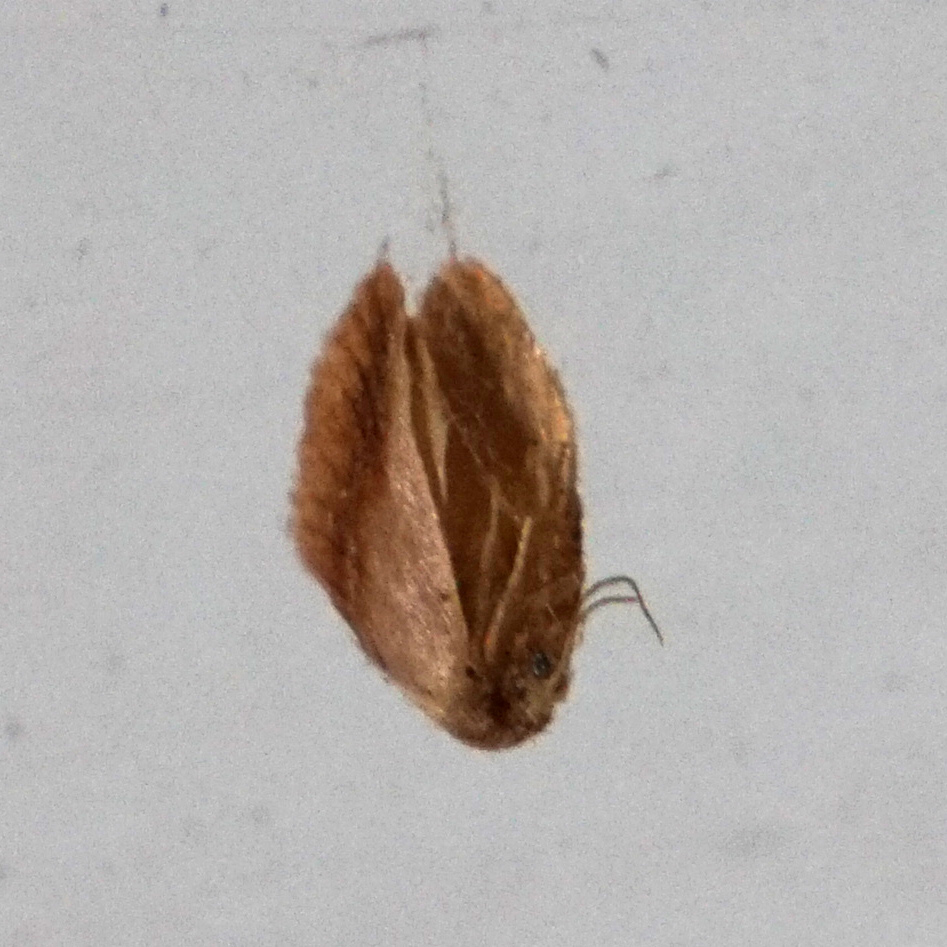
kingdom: Animalia
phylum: Arthropoda
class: Insecta
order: Lepidoptera
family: Limacodidae
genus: Tortricidia
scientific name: Tortricidia testacea
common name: Early button slug moth
